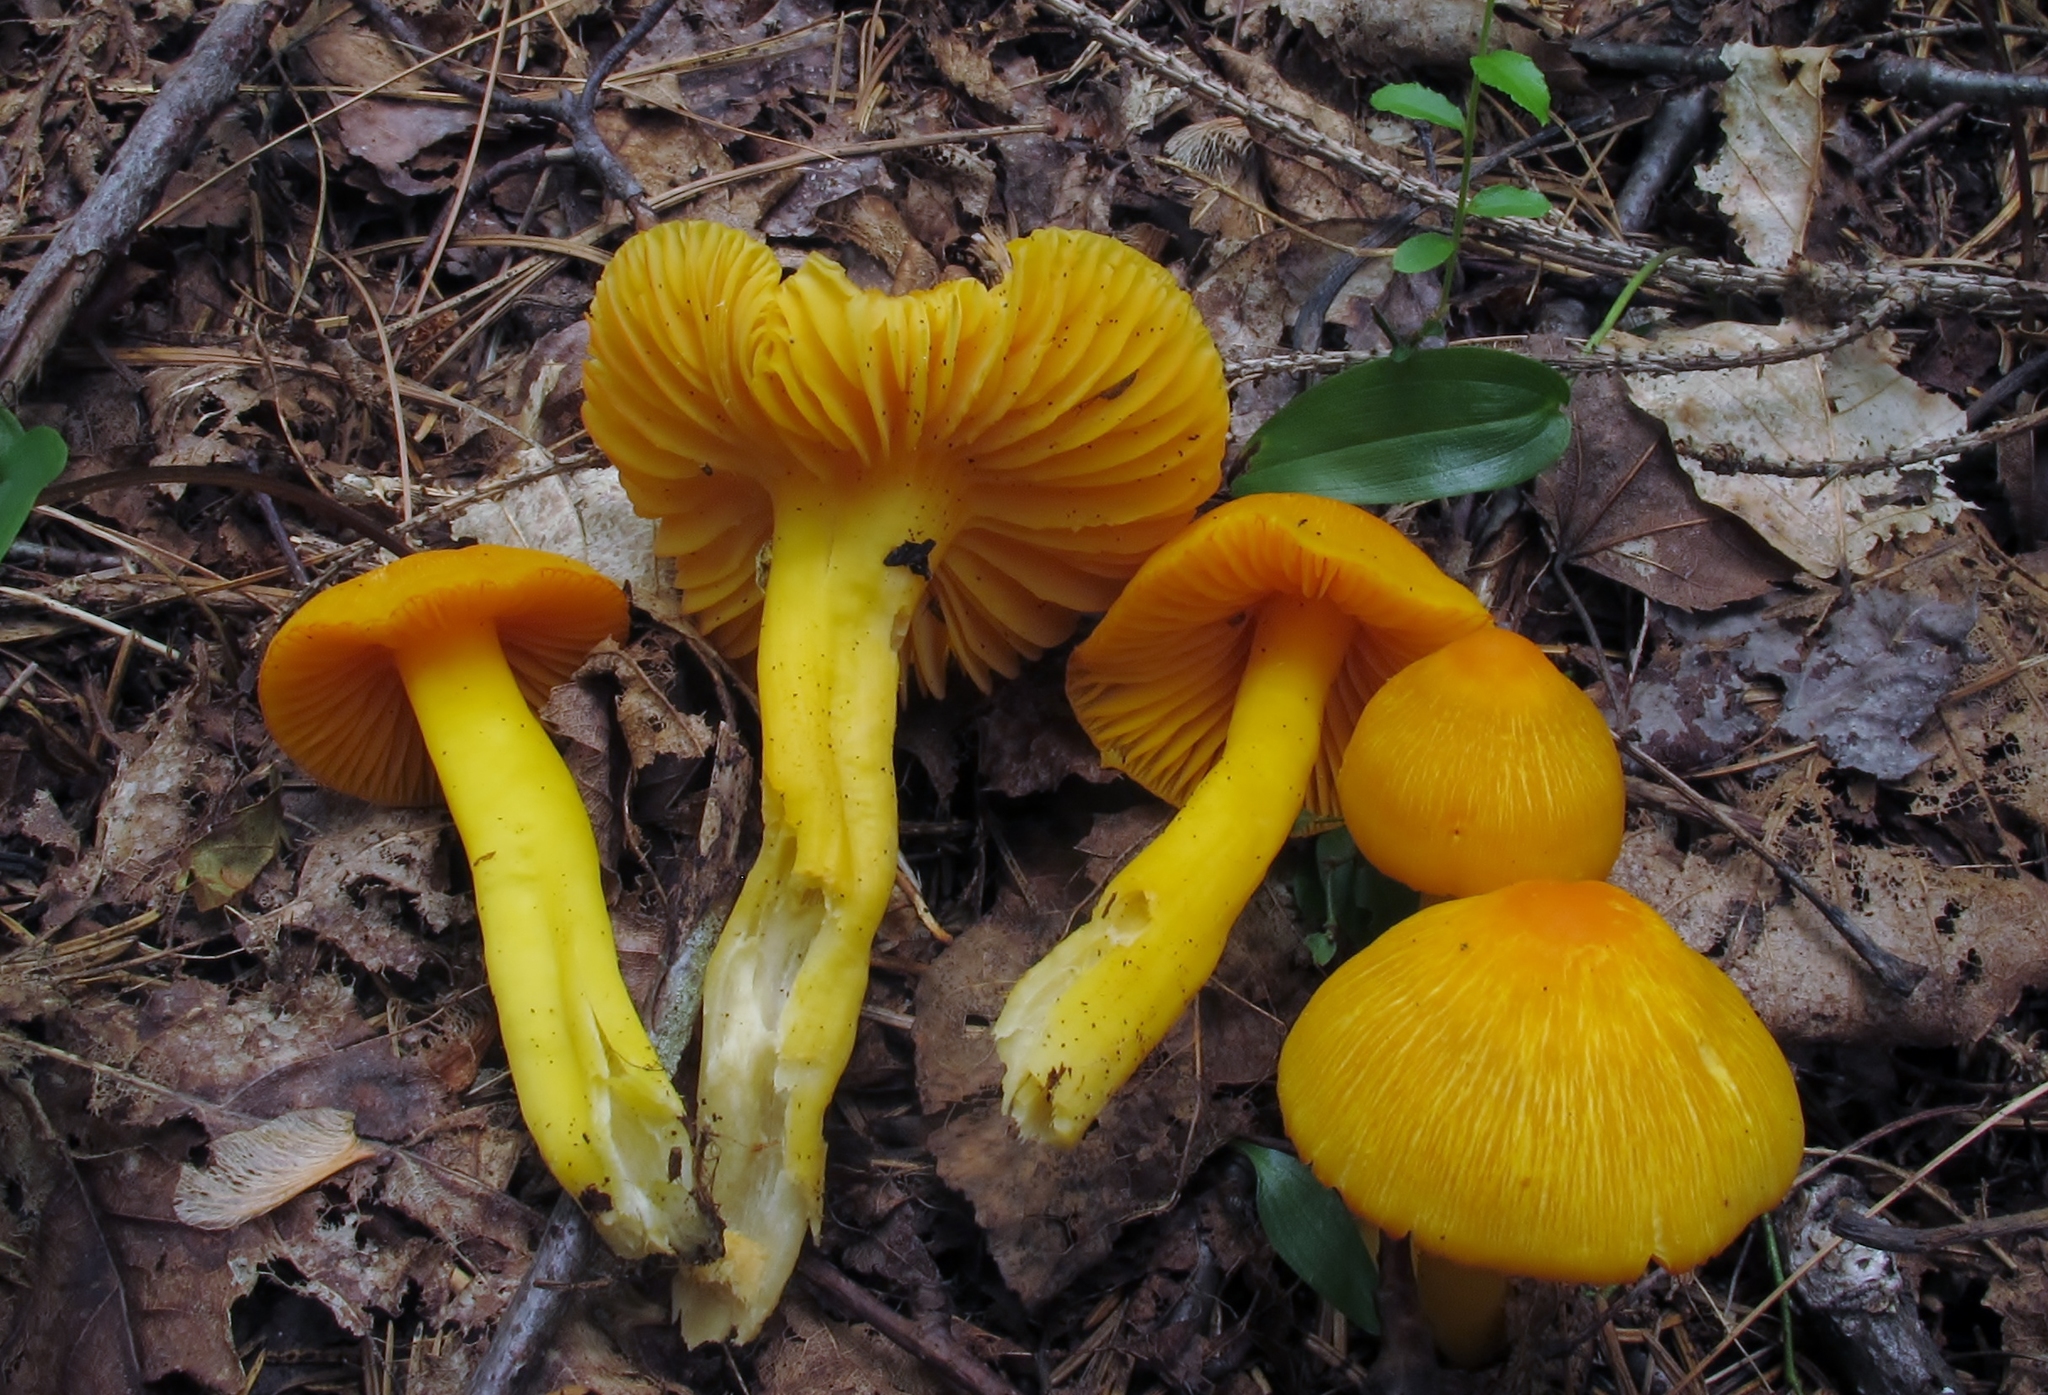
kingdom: Fungi
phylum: Basidiomycota
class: Agaricomycetes
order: Agaricales
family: Hygrophoraceae
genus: Humidicutis
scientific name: Humidicutis marginata
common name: Orange gilled waxcap
